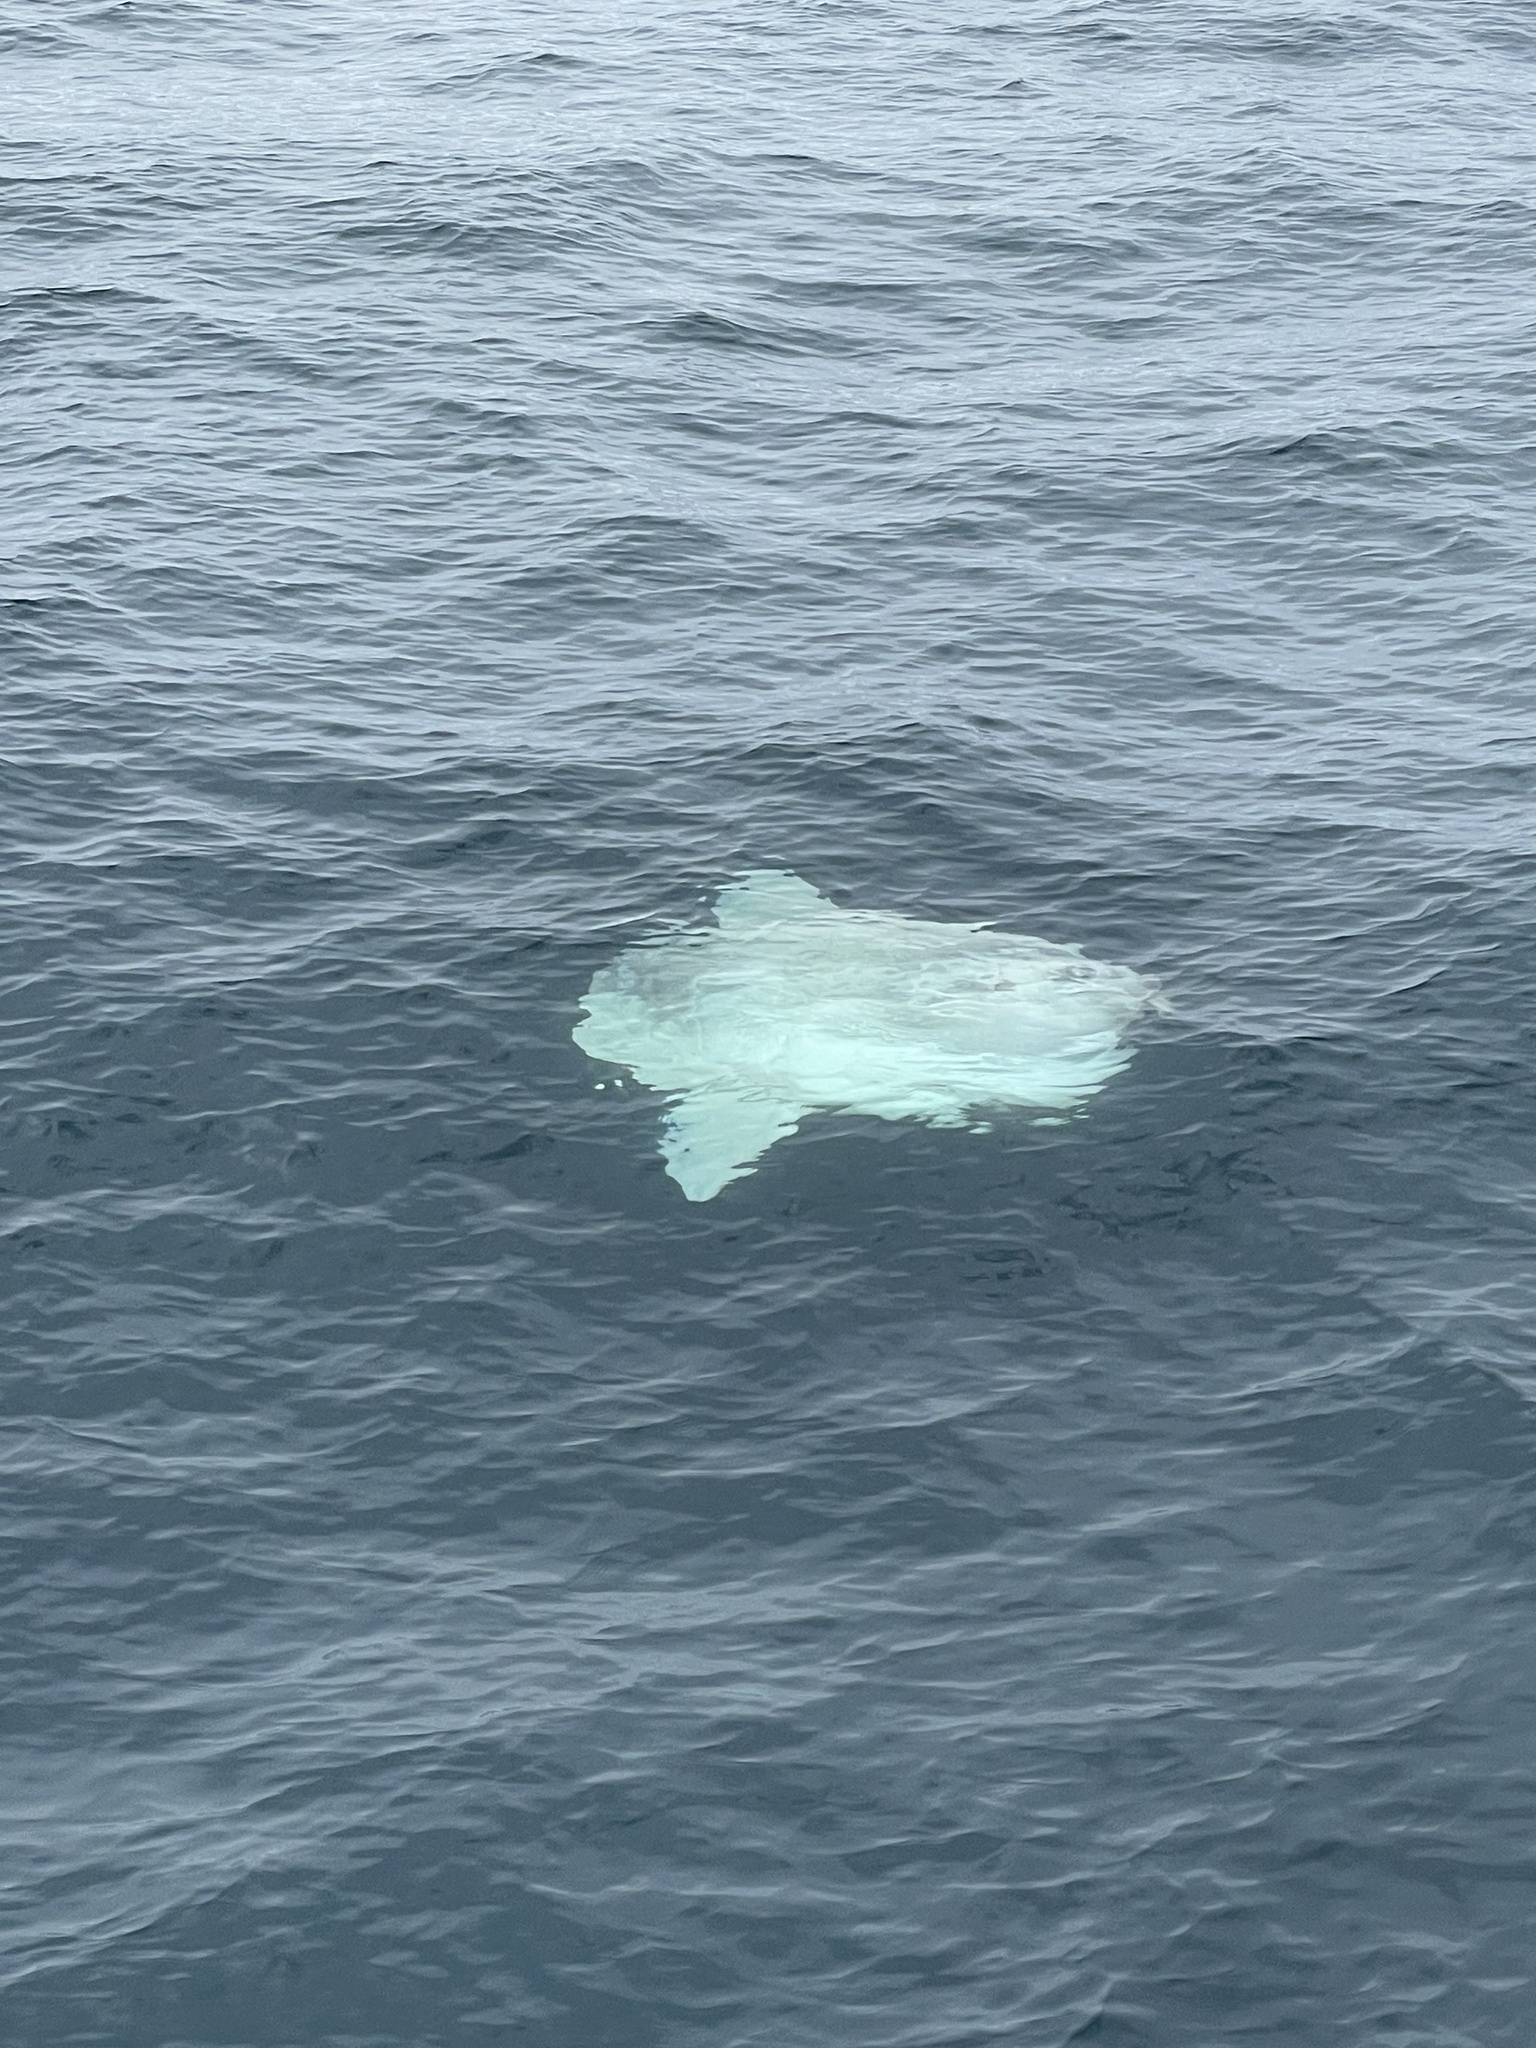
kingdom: Animalia
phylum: Chordata
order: Tetraodontiformes
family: Molidae
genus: Mola
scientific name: Mola mola
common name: Ocean sunfish
